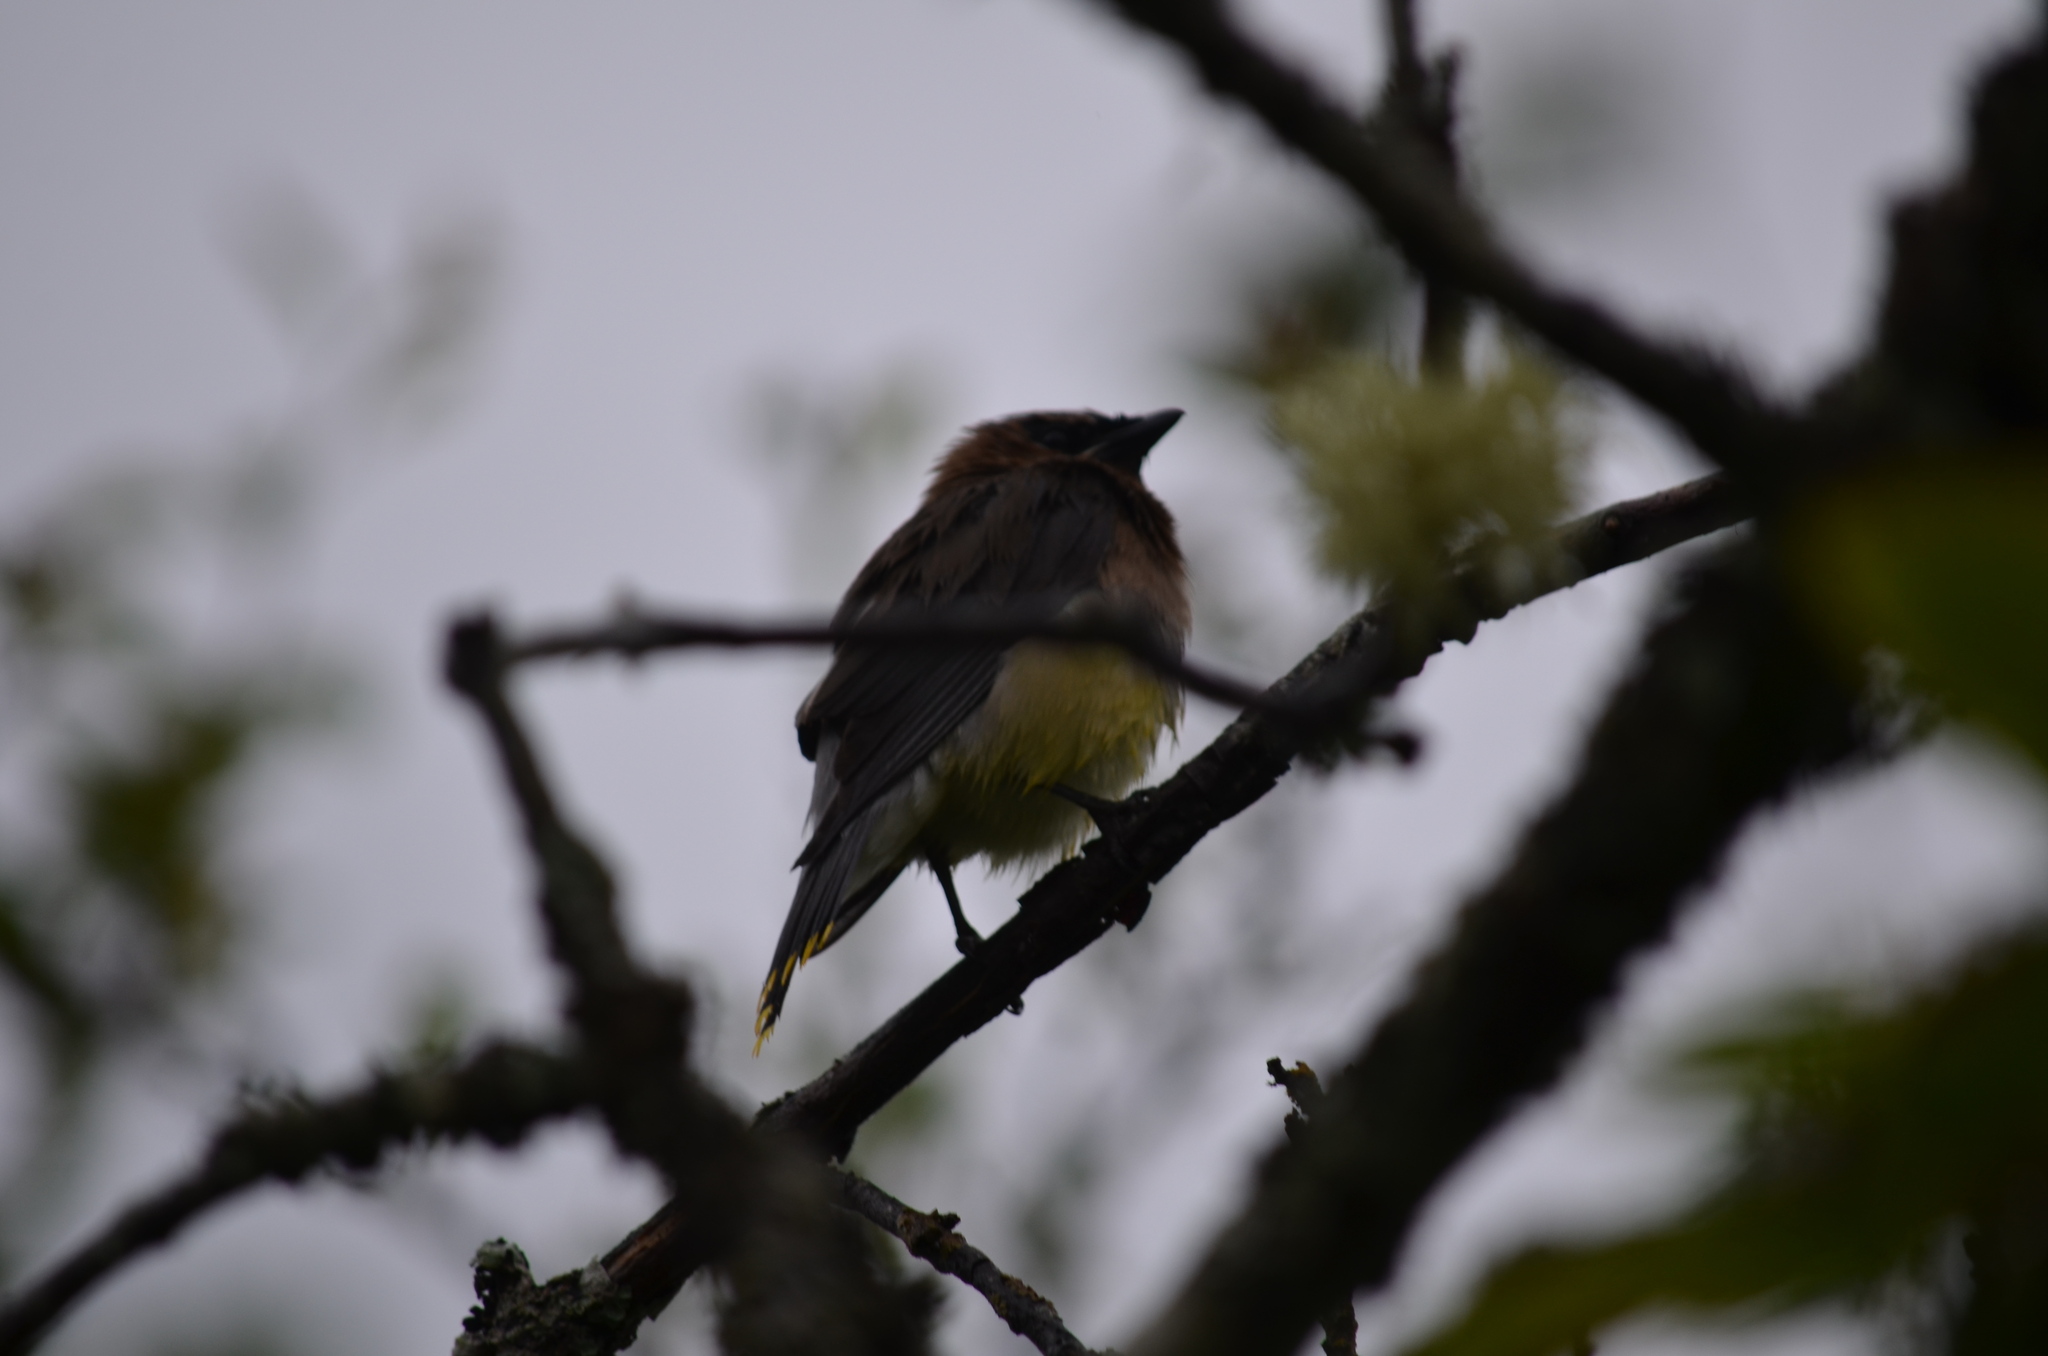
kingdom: Animalia
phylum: Chordata
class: Aves
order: Passeriformes
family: Bombycillidae
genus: Bombycilla
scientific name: Bombycilla cedrorum
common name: Cedar waxwing
